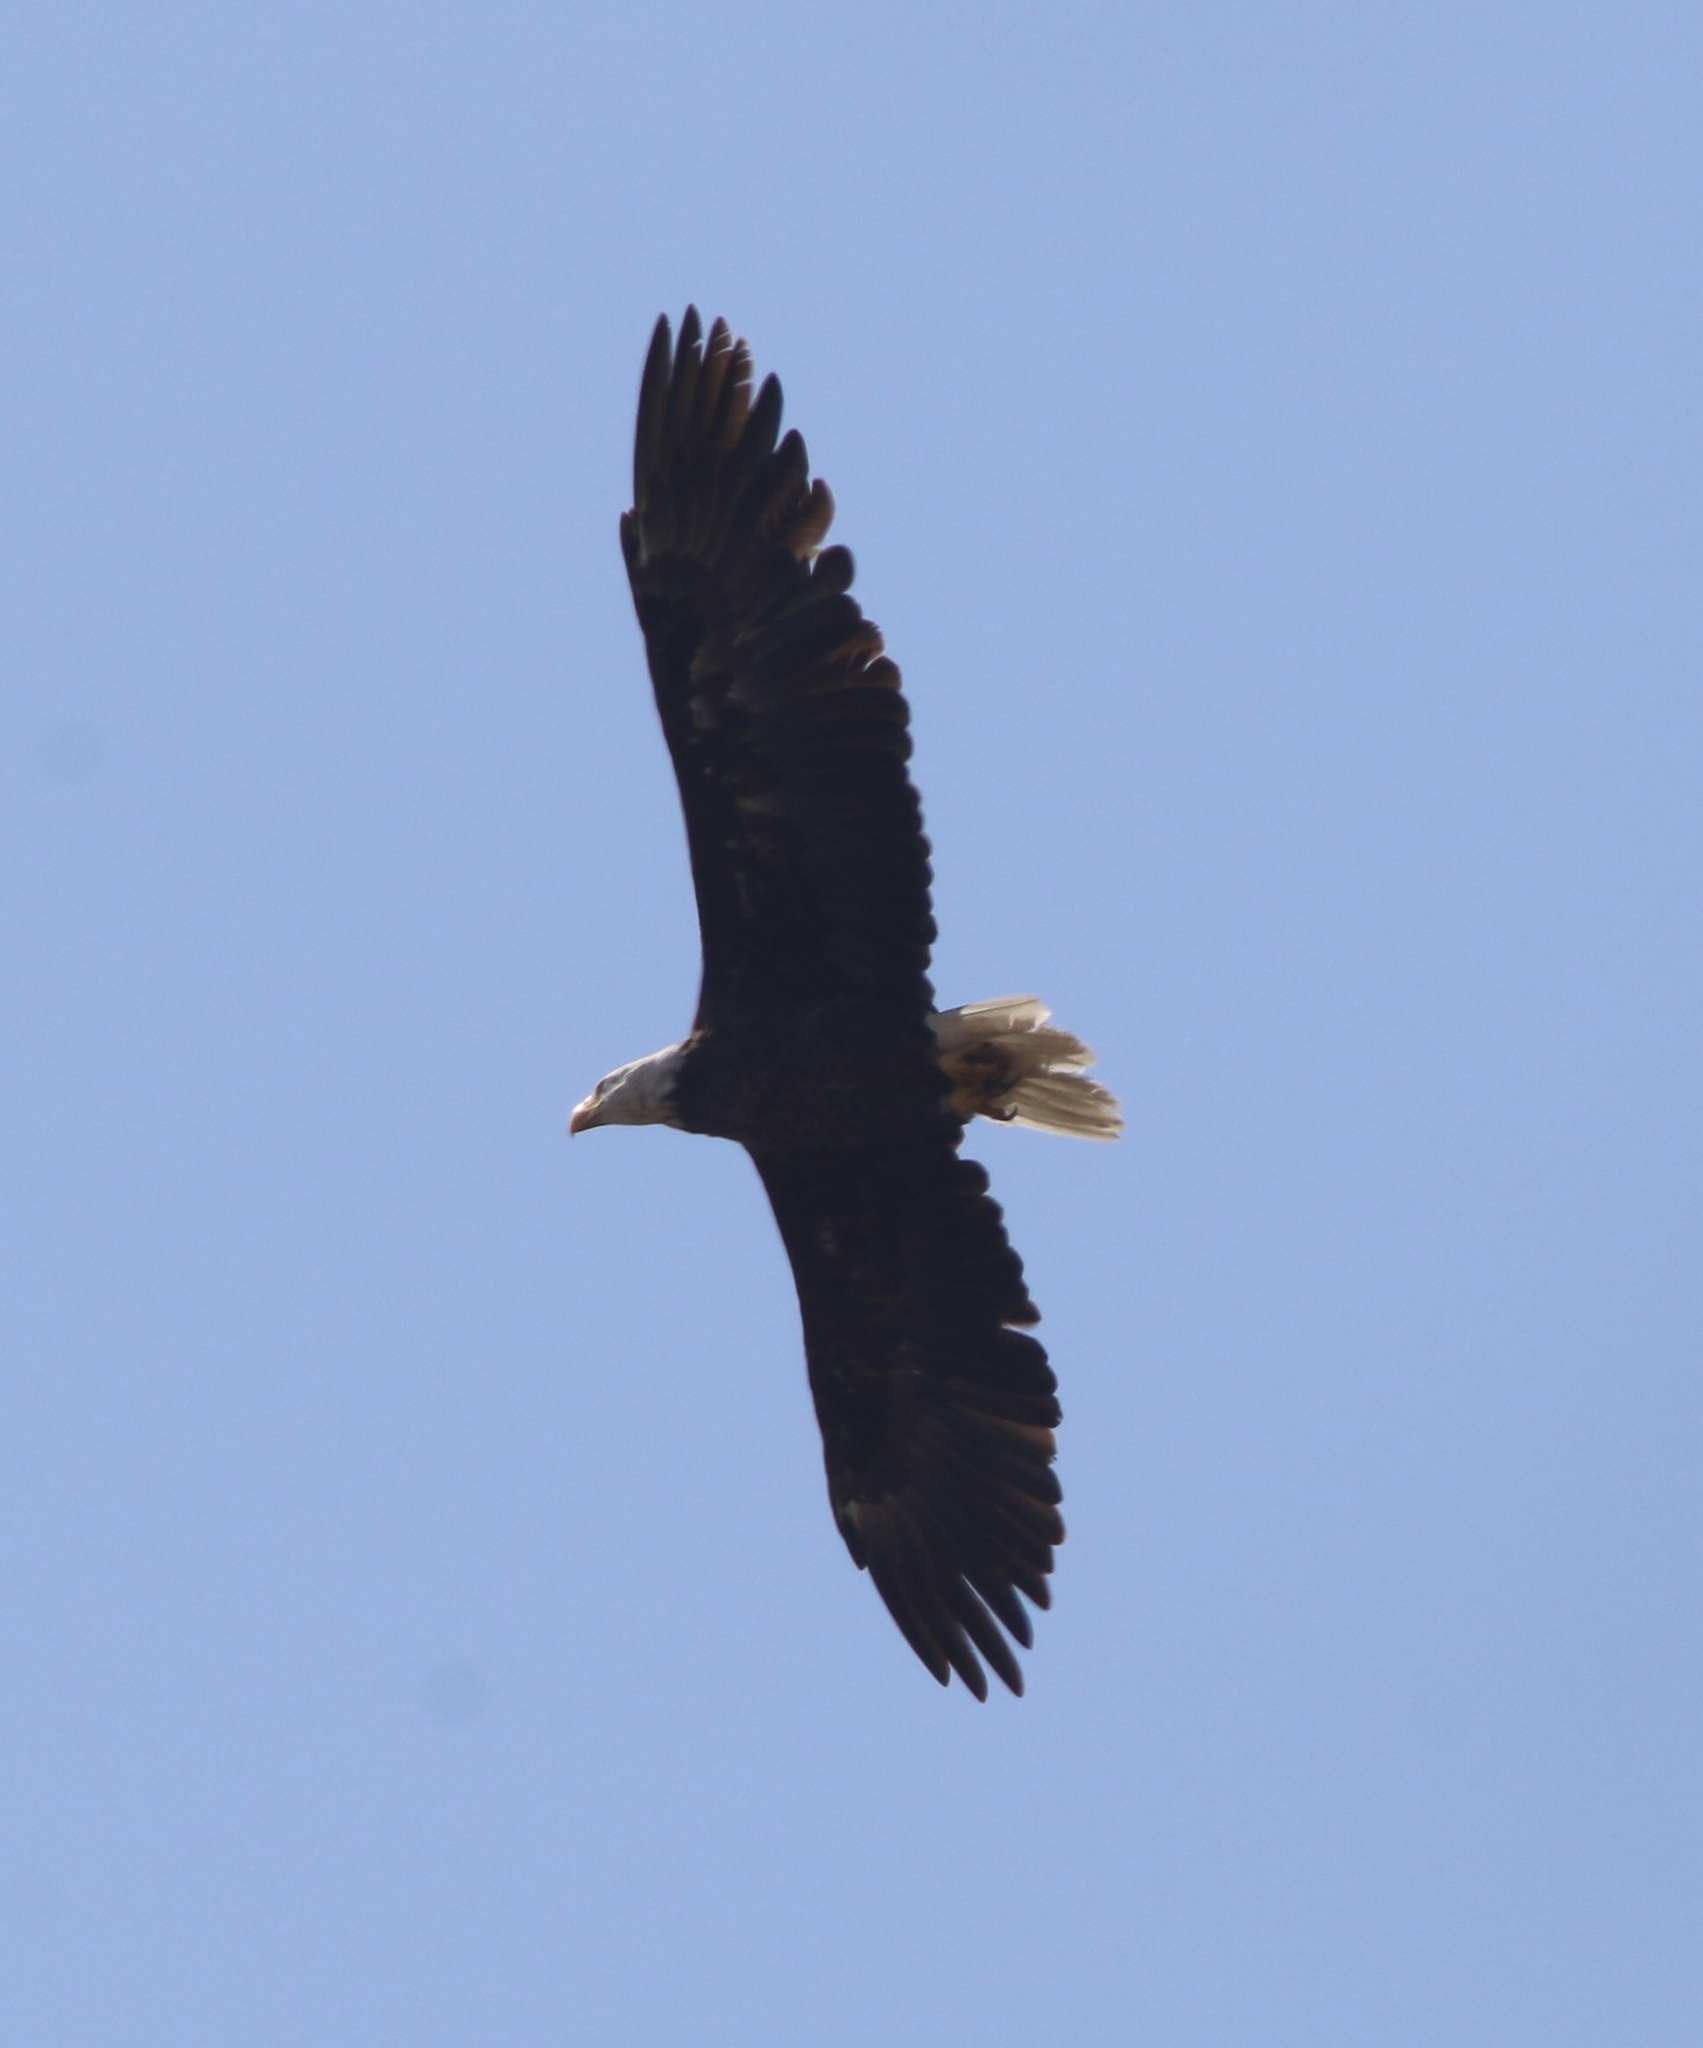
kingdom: Animalia
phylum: Chordata
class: Aves
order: Accipitriformes
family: Accipitridae
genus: Haliaeetus
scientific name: Haliaeetus leucocephalus
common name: Bald eagle
